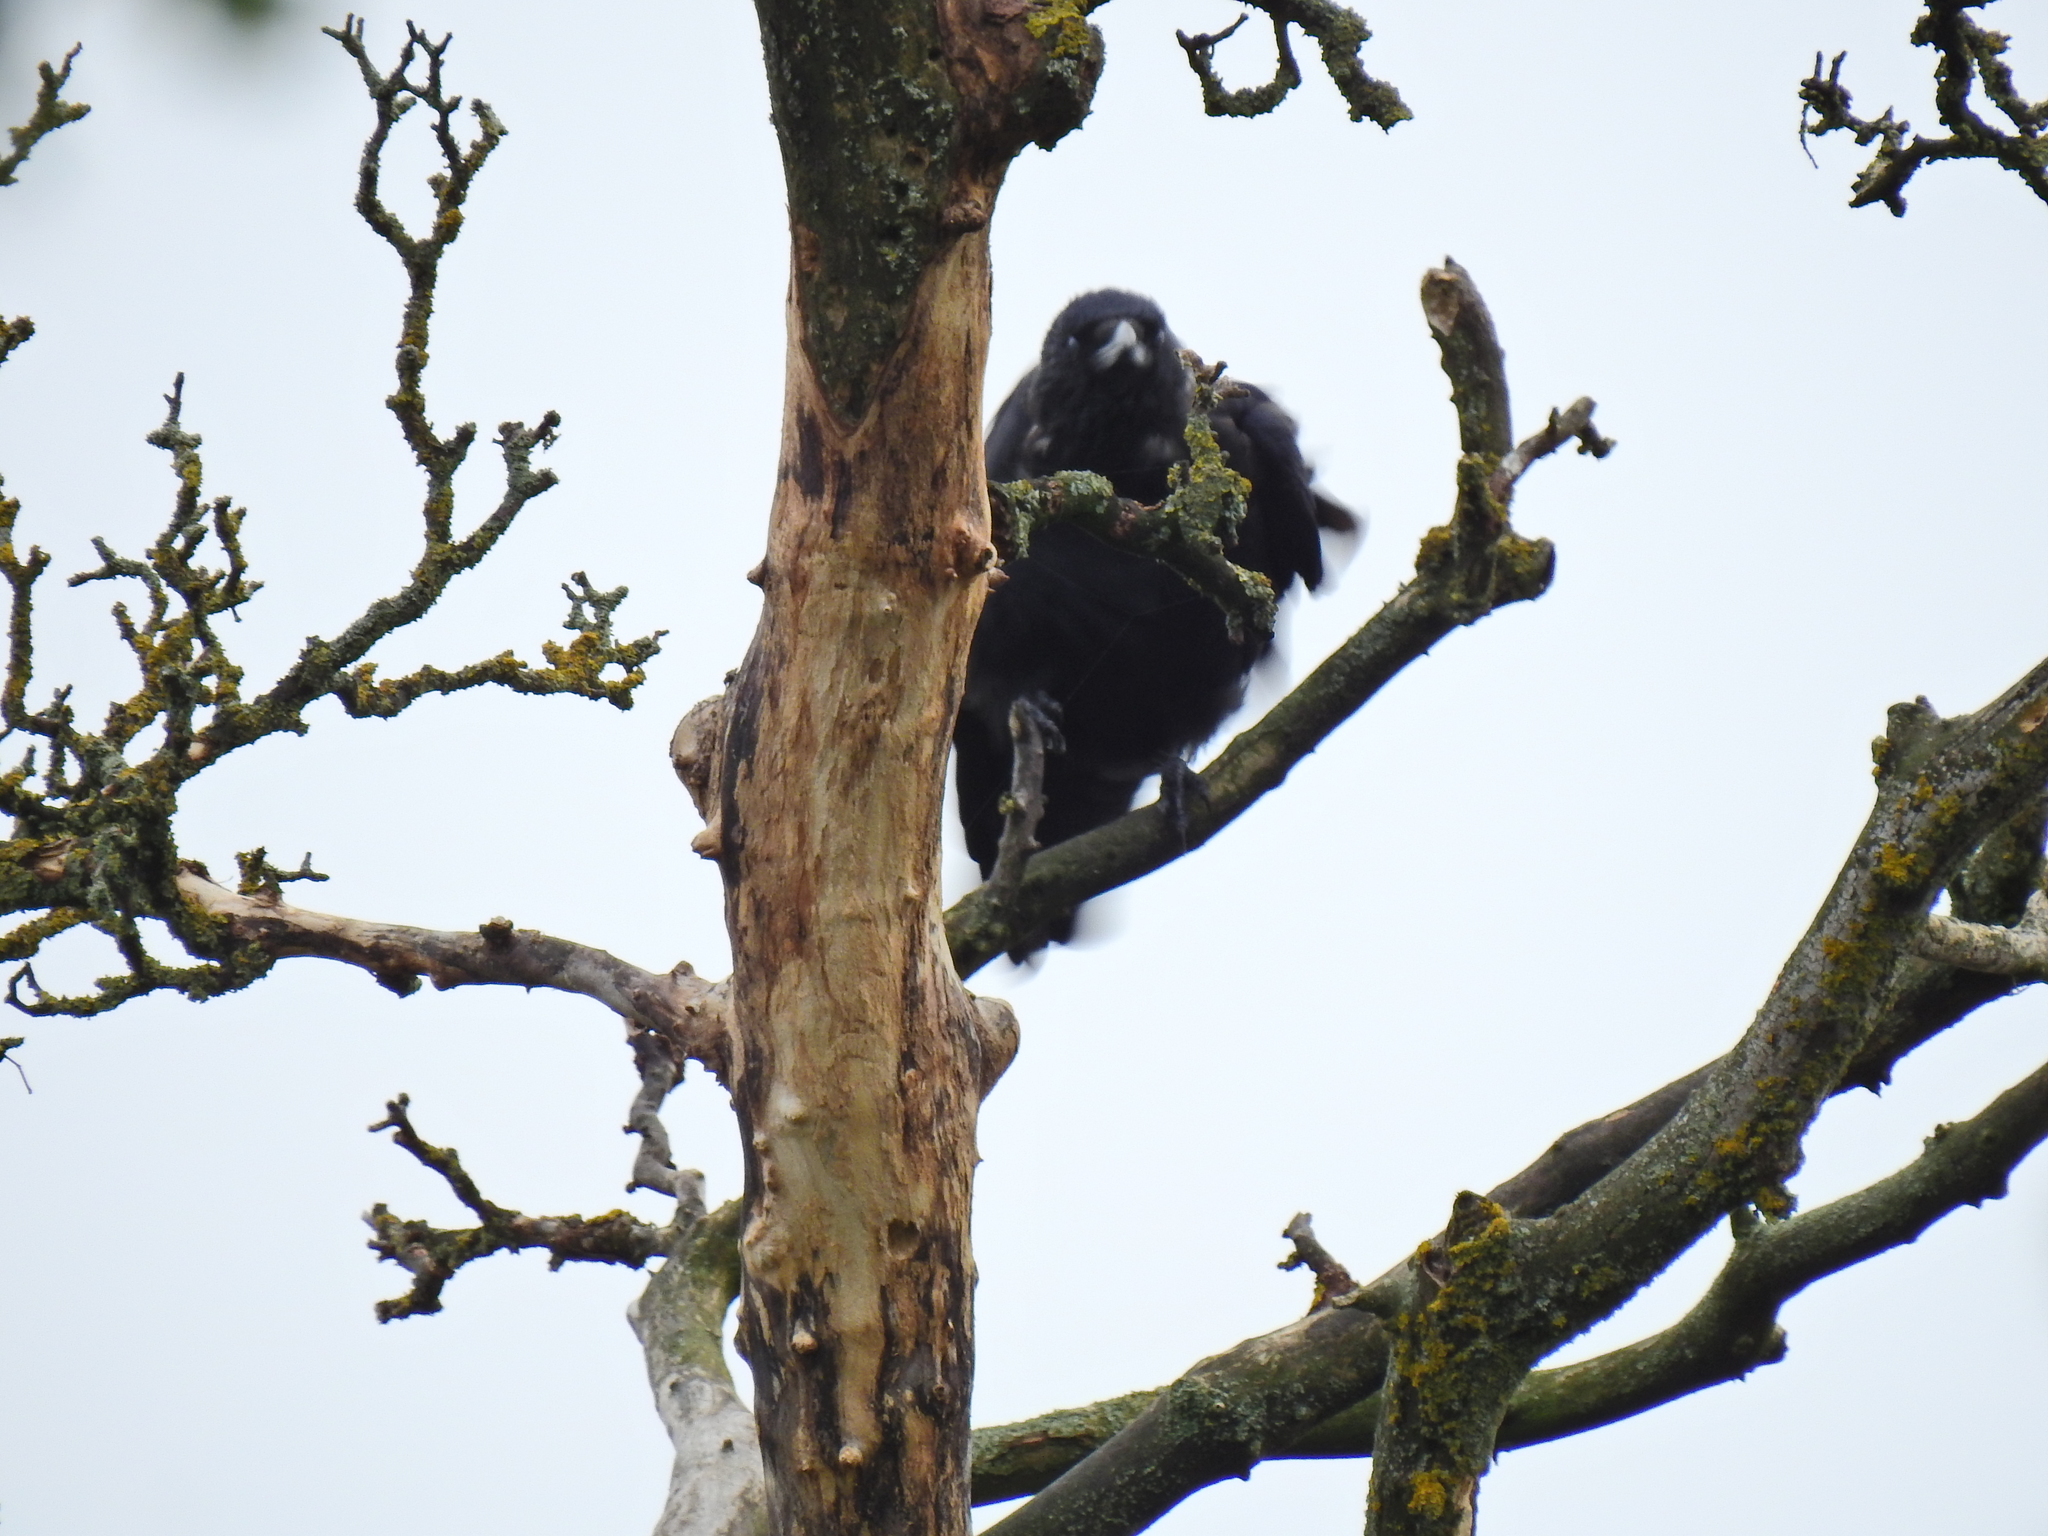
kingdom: Animalia
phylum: Chordata
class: Aves
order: Passeriformes
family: Corvidae
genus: Corvus
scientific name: Corvus corone
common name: Carrion crow
